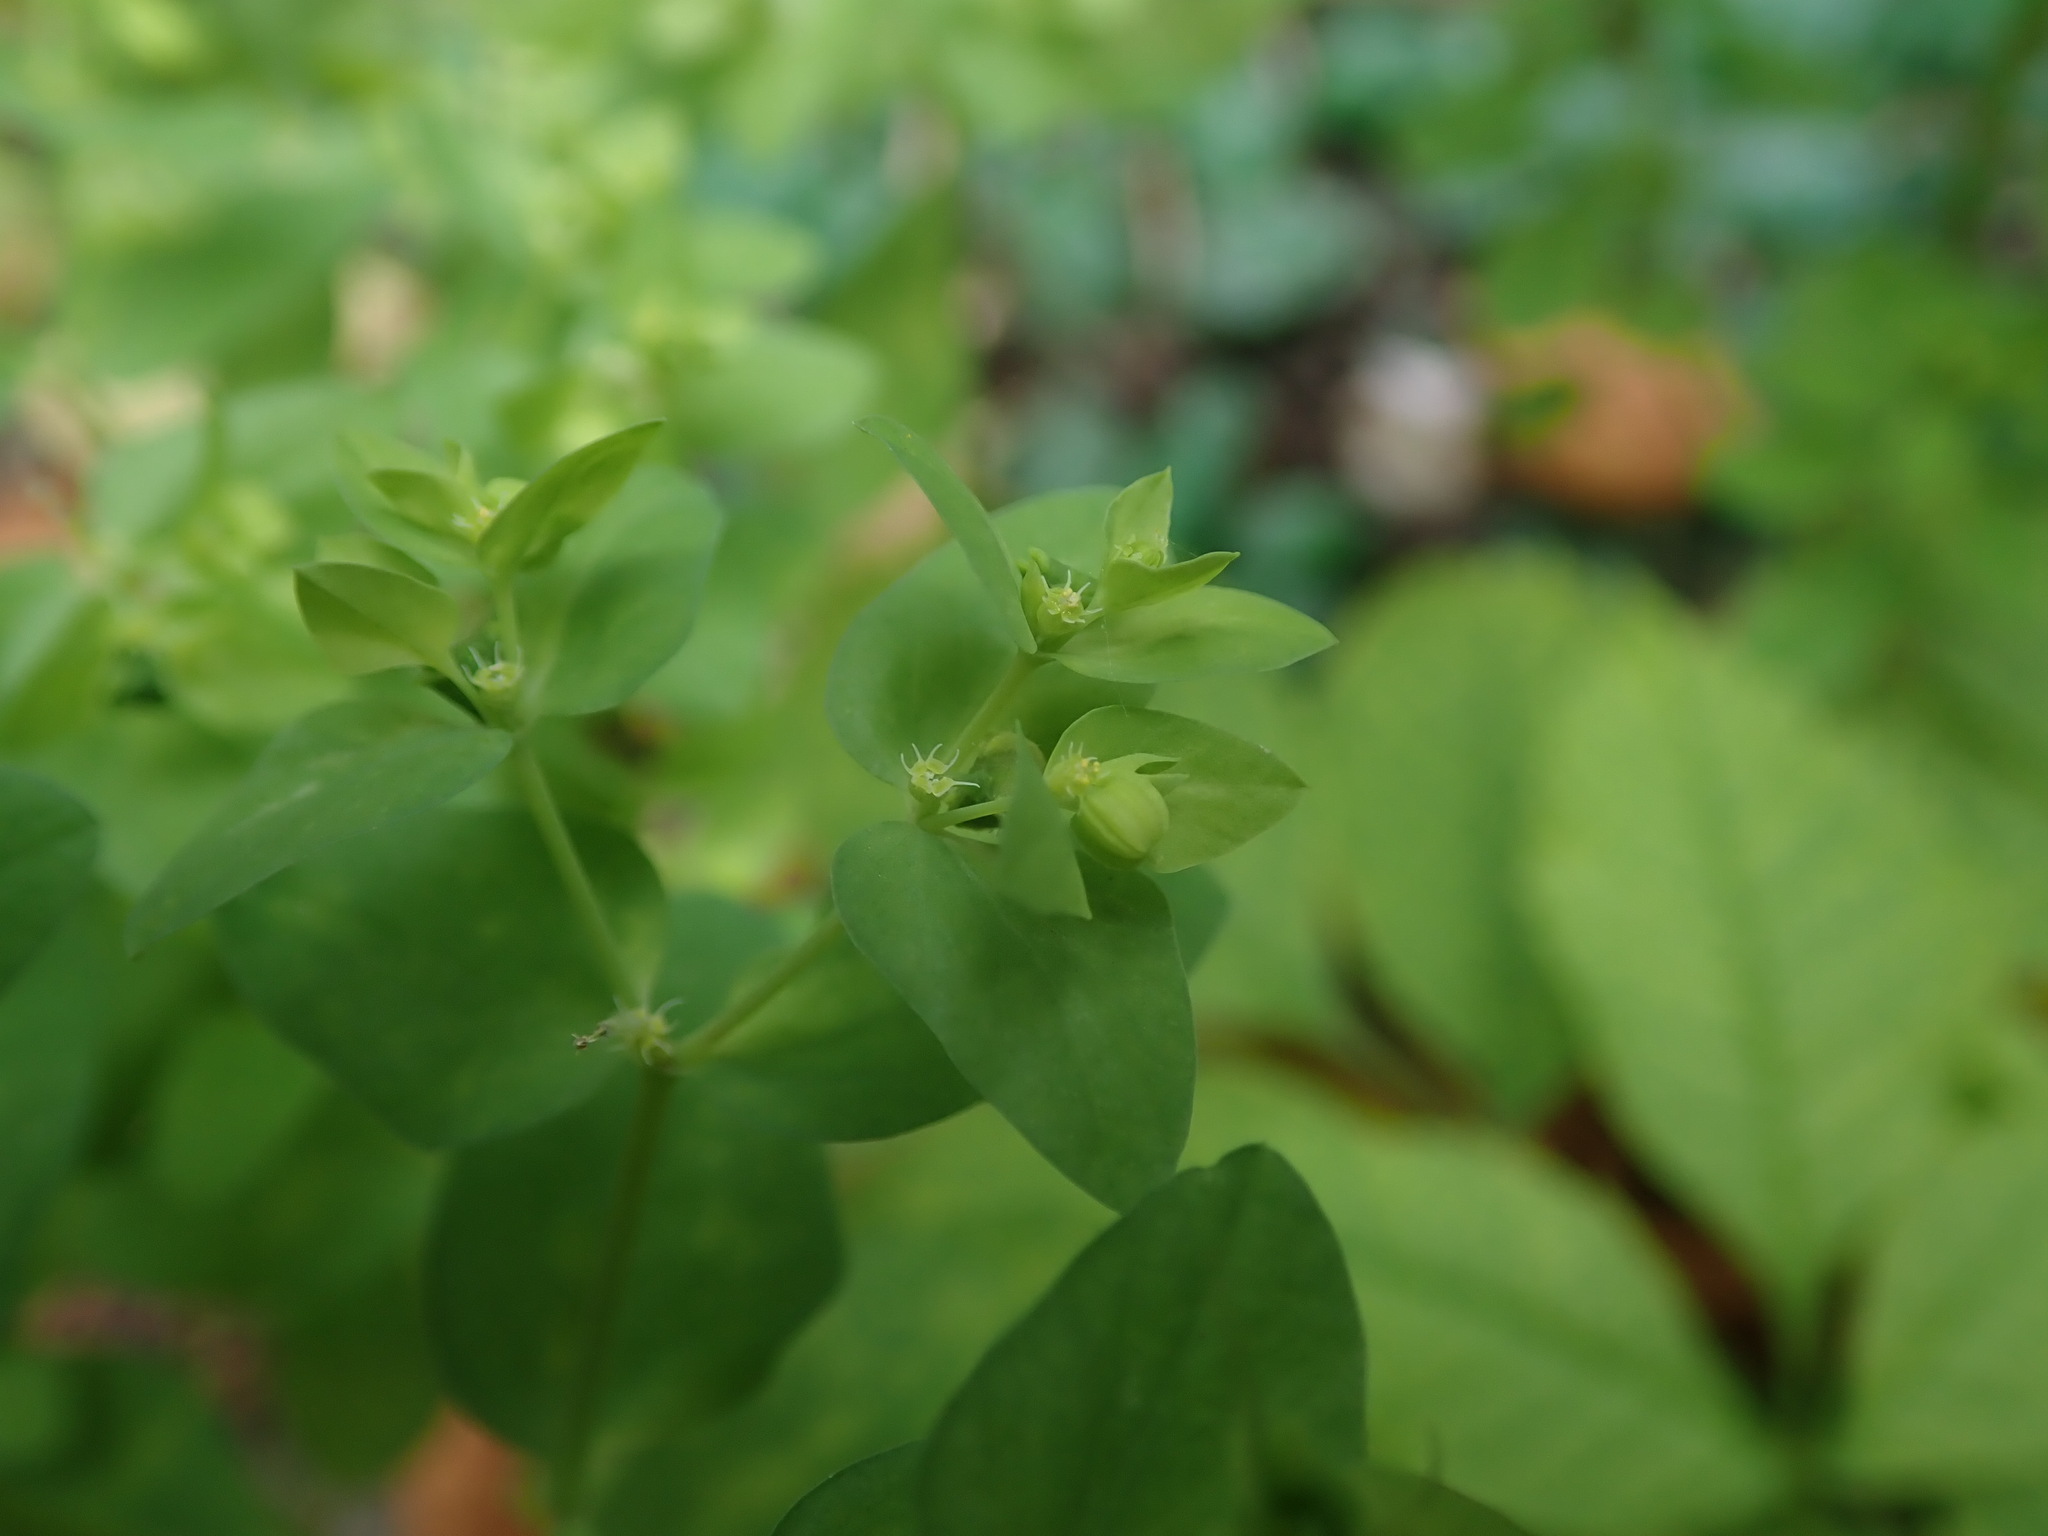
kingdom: Plantae
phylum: Tracheophyta
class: Magnoliopsida
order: Malpighiales
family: Euphorbiaceae
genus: Euphorbia
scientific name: Euphorbia peplus
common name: Petty spurge
